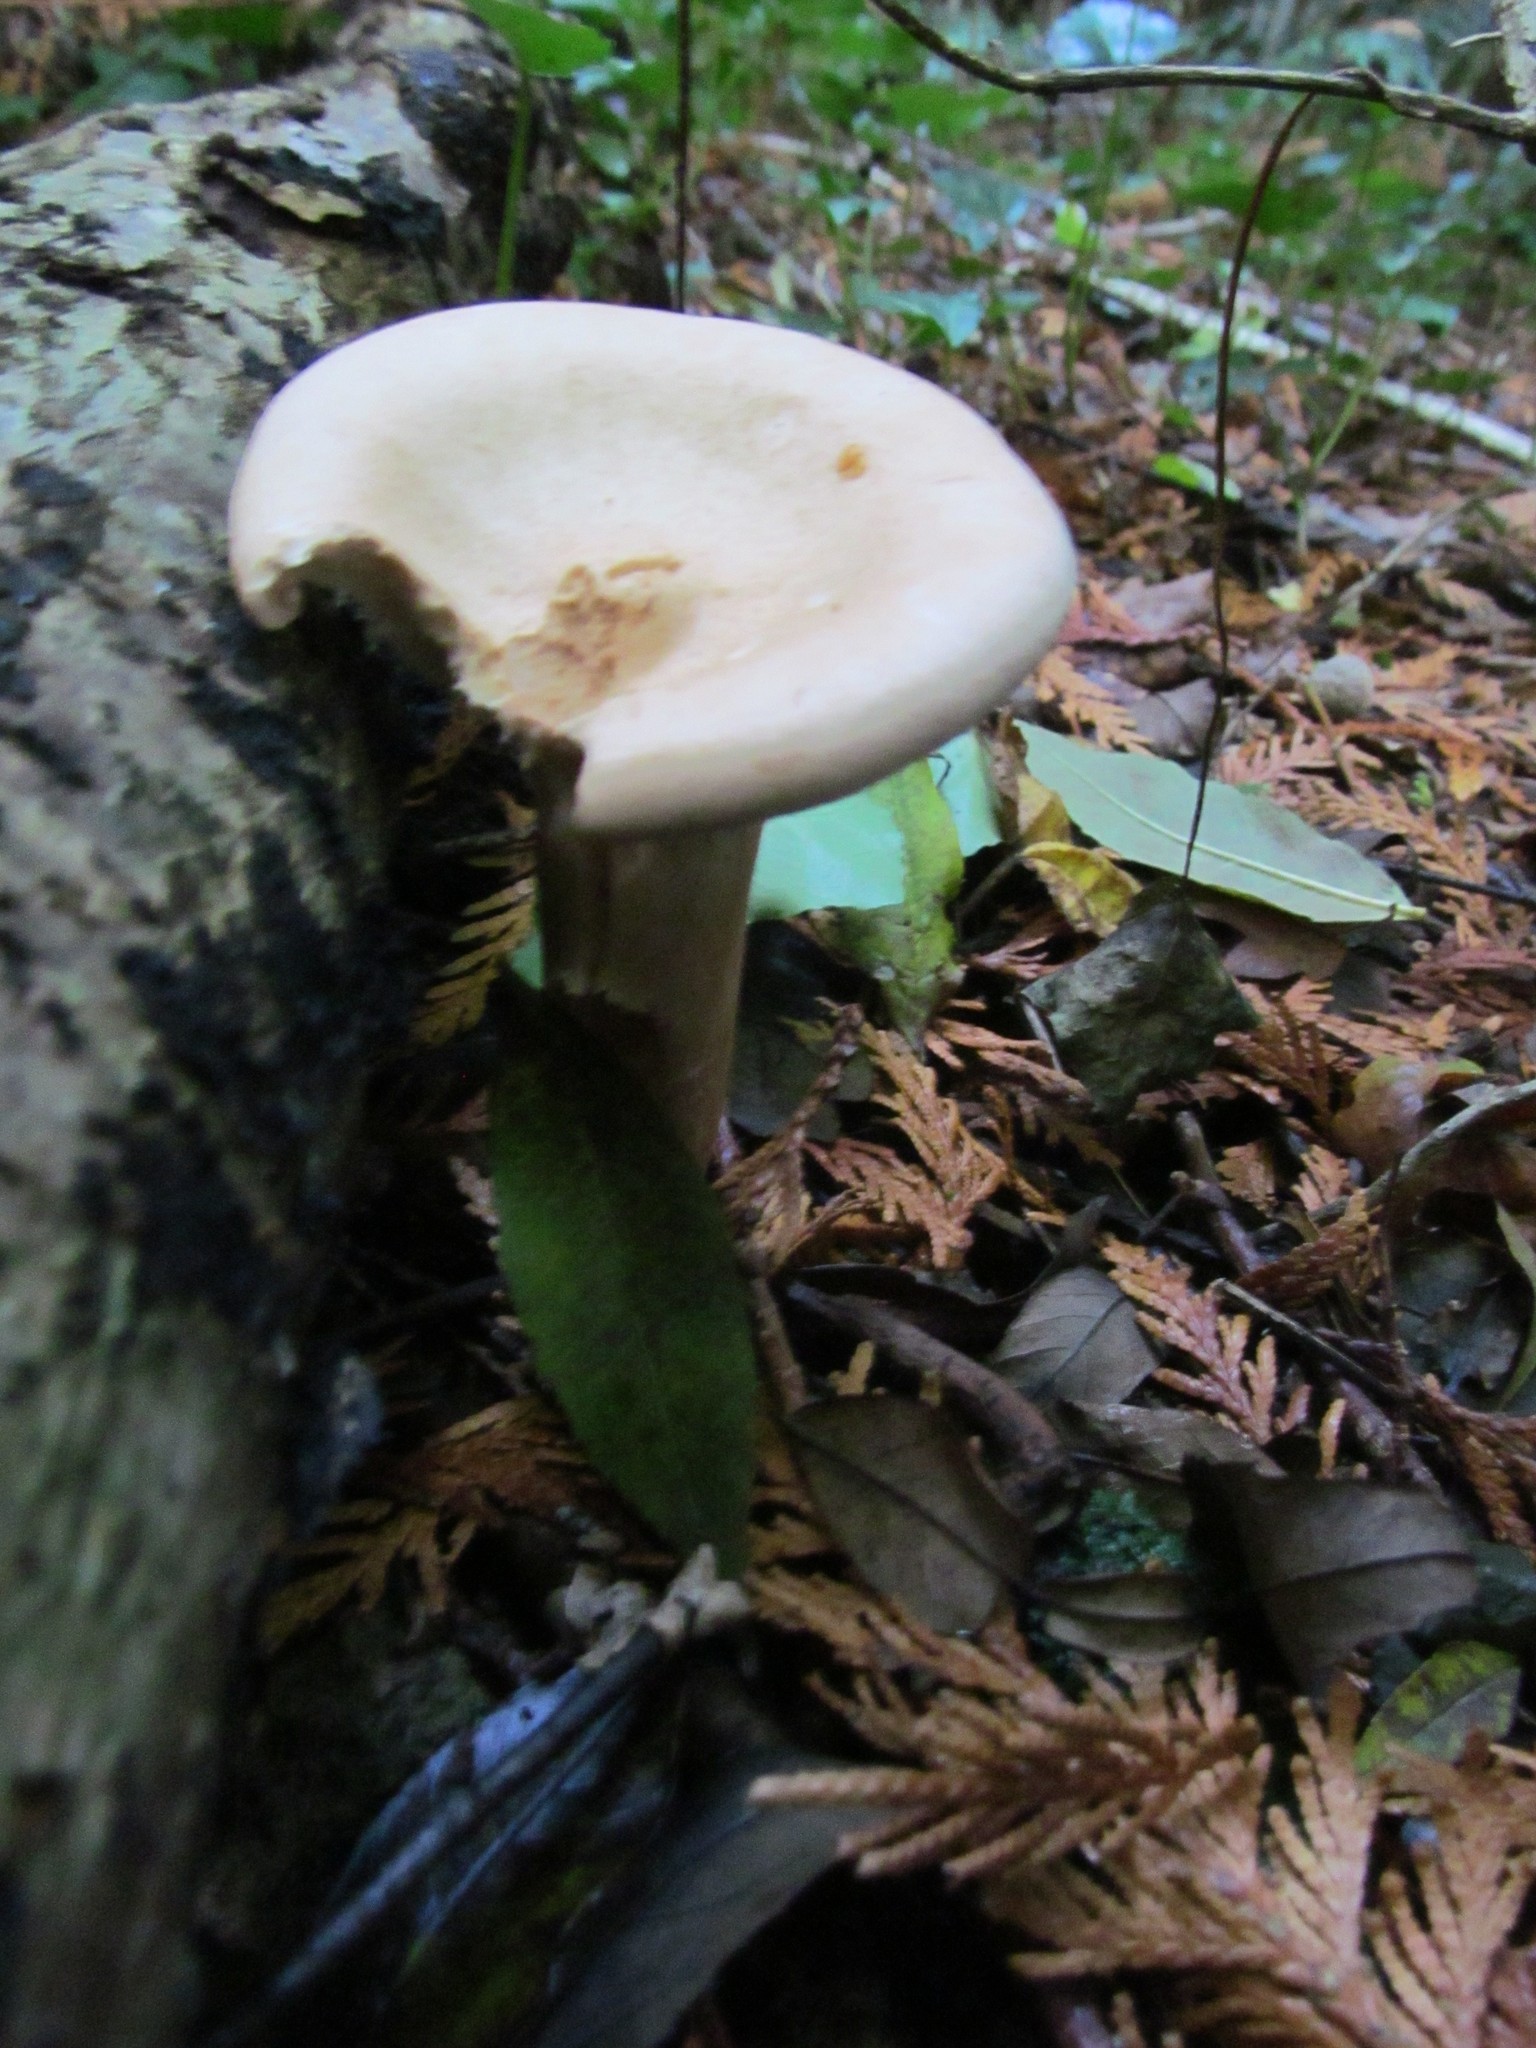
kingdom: Fungi
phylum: Basidiomycota
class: Agaricomycetes
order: Agaricales
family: Tricholomataceae
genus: Infundibulicybe
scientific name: Infundibulicybe geotropa
